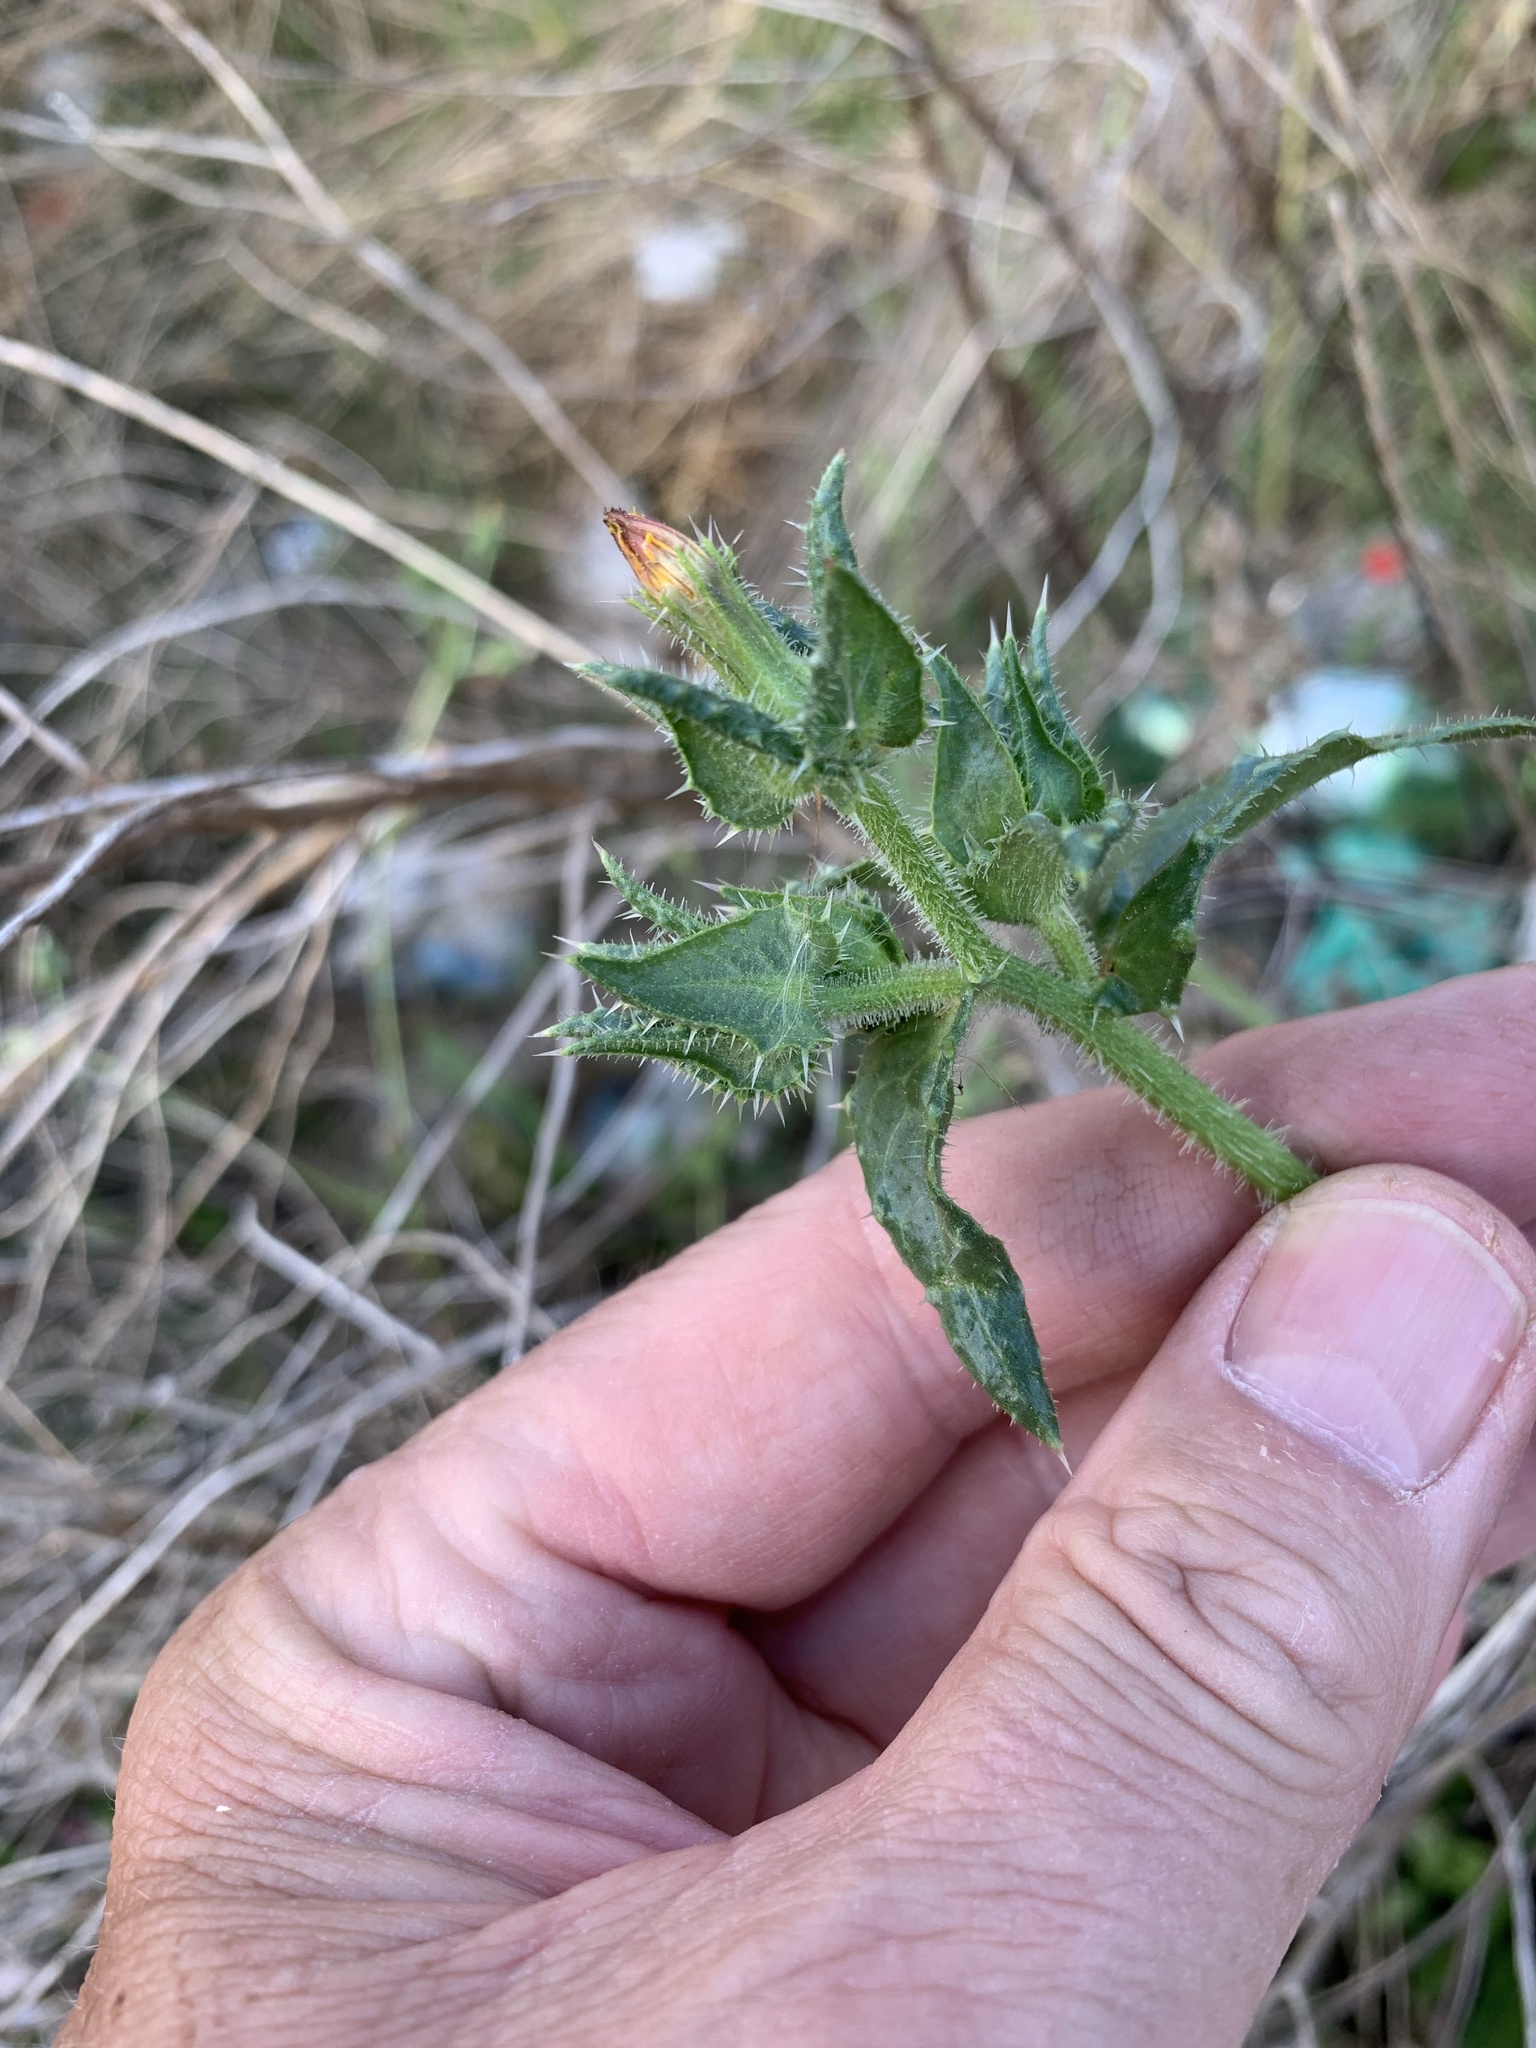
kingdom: Plantae
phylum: Tracheophyta
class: Magnoliopsida
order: Asterales
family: Asteraceae
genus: Helminthotheca
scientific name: Helminthotheca echioides
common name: Ox-tongue
